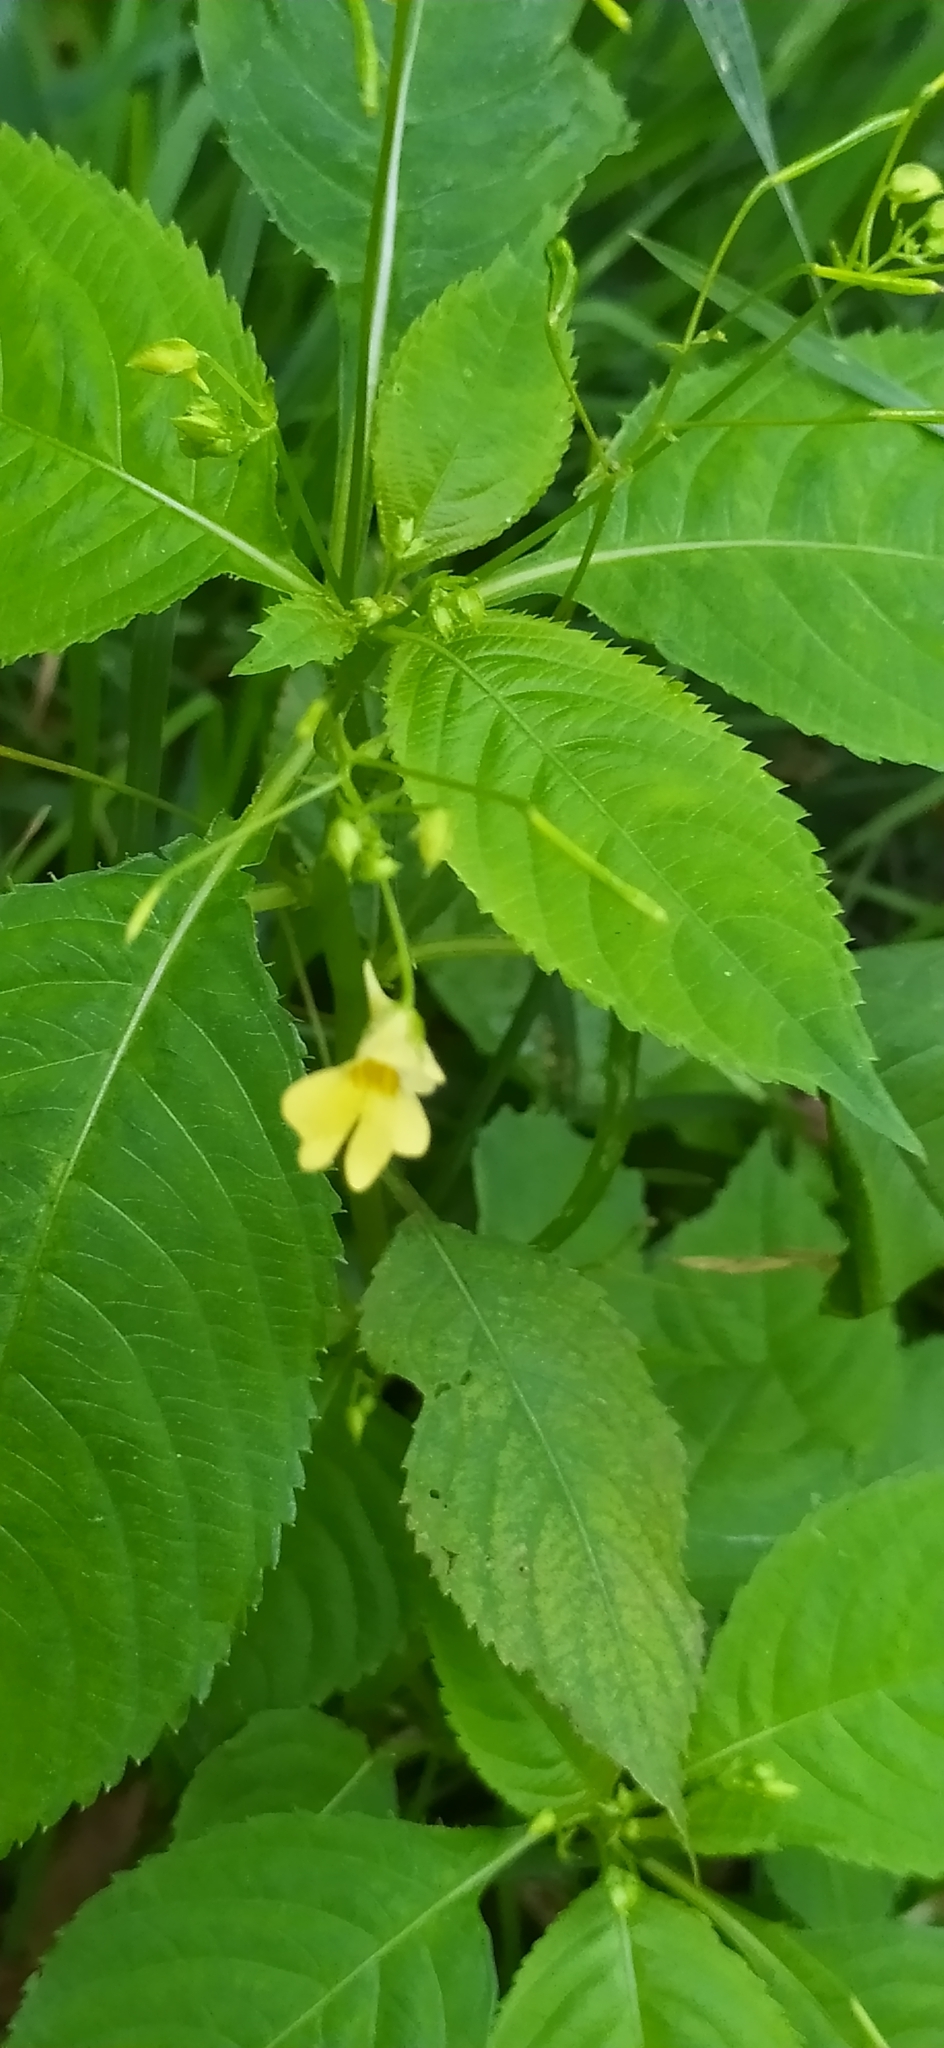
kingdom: Plantae
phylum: Tracheophyta
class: Magnoliopsida
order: Ericales
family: Balsaminaceae
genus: Impatiens
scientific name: Impatiens parviflora
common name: Small balsam
